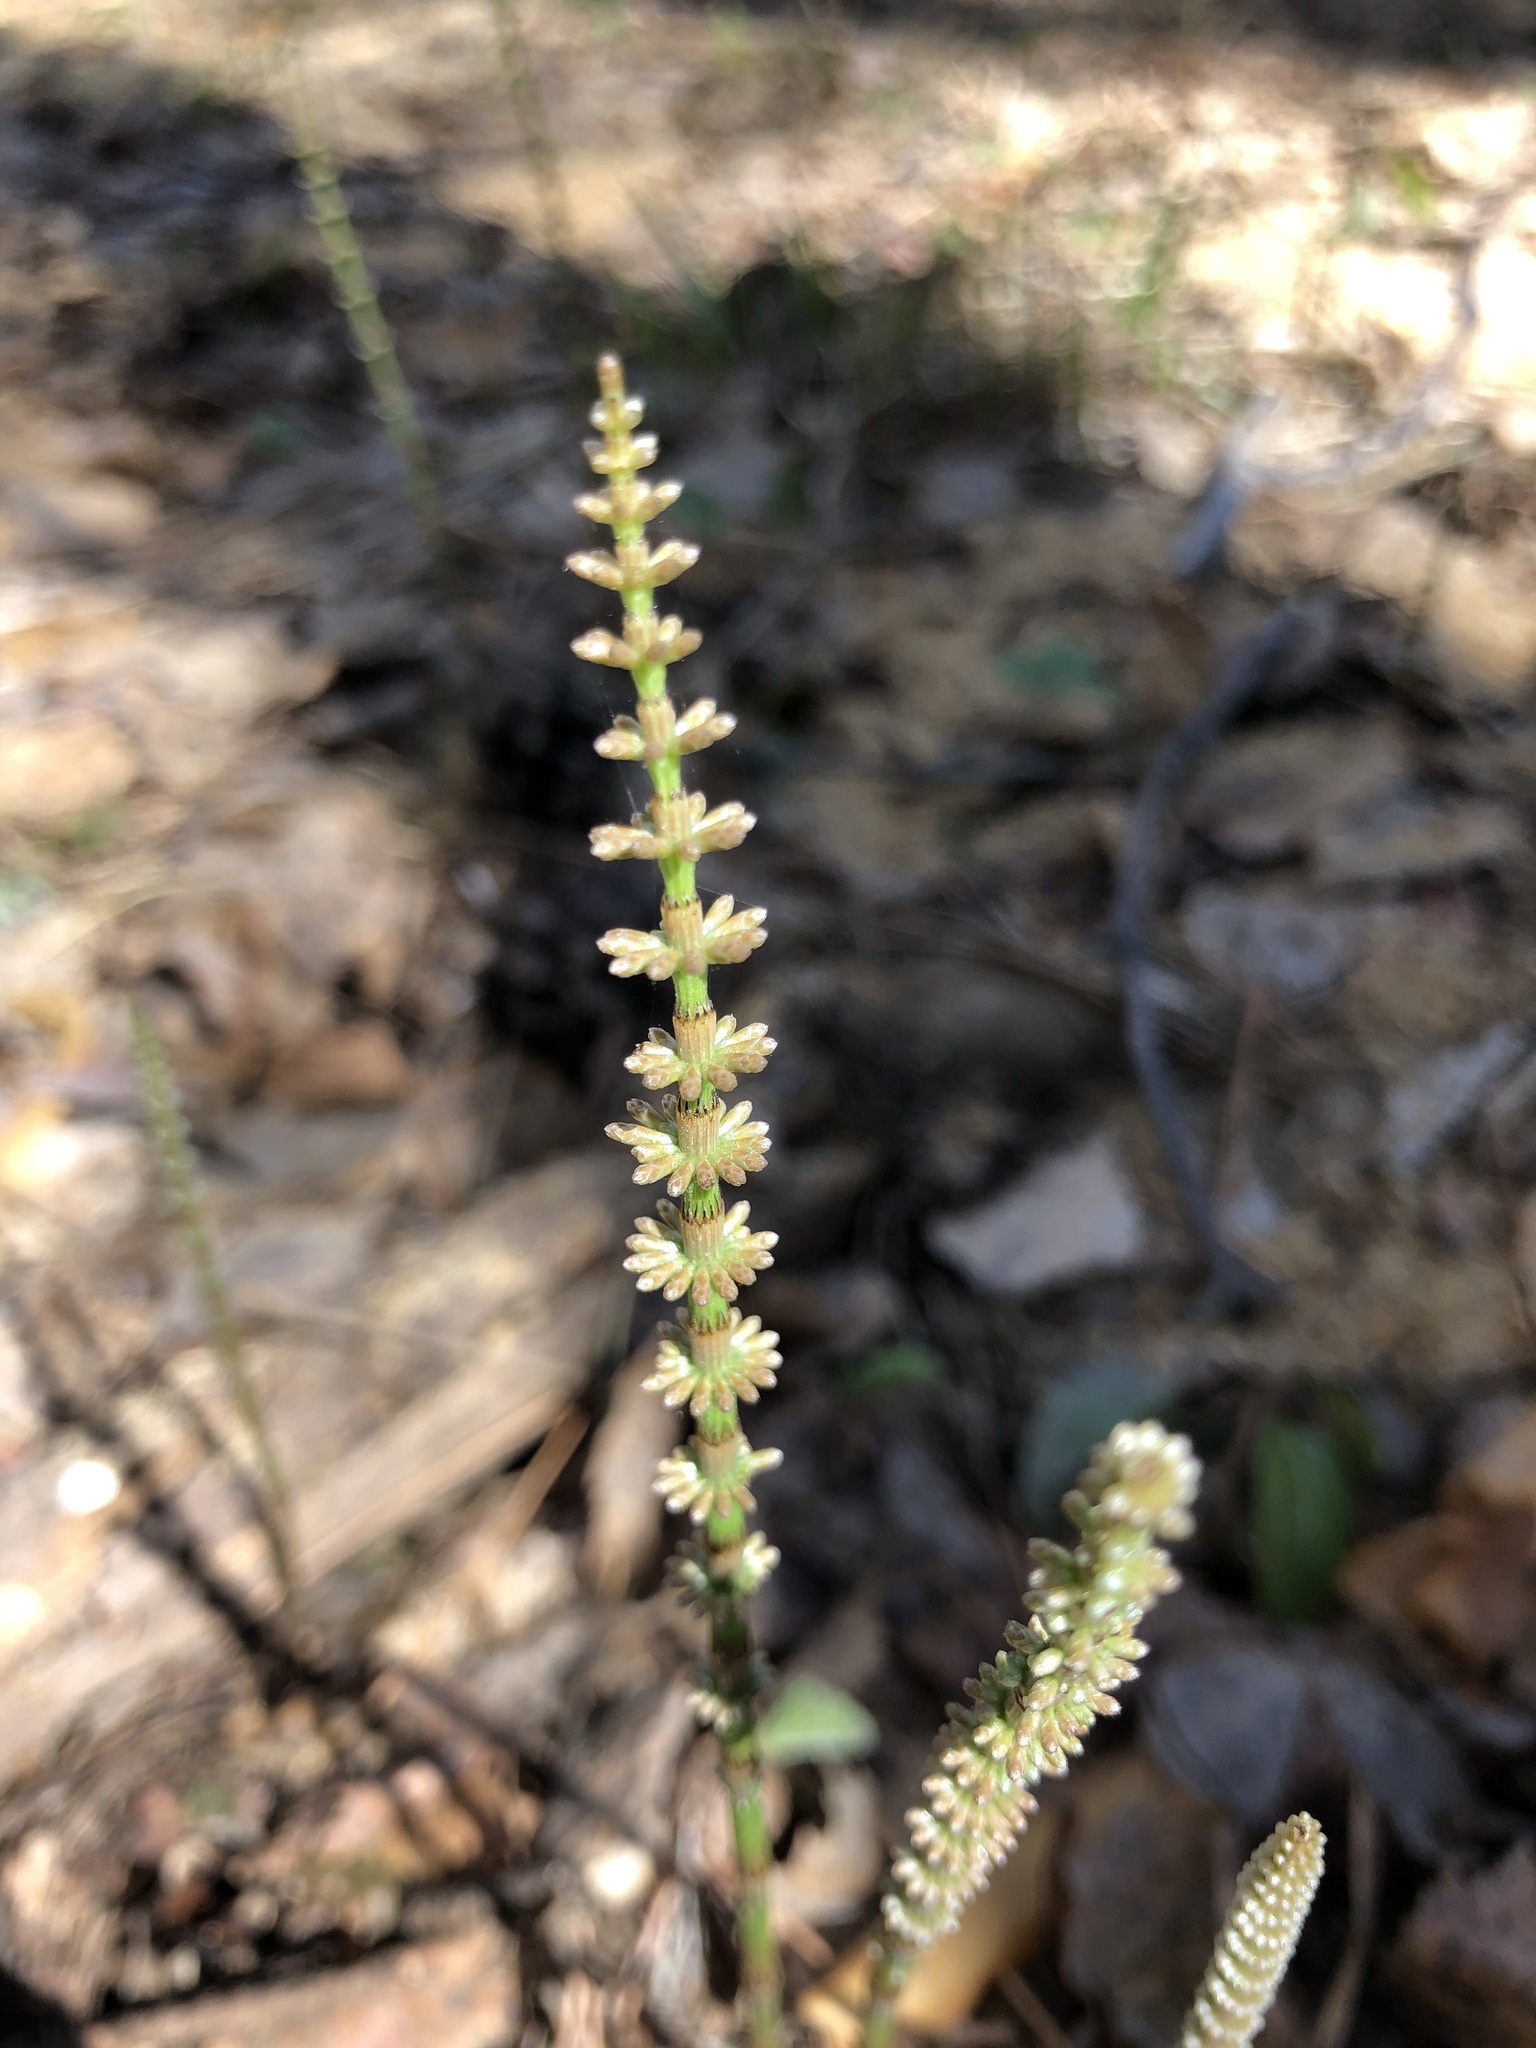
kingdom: Plantae
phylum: Tracheophyta
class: Polypodiopsida
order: Equisetales
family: Equisetaceae
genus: Equisetum
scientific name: Equisetum pratense
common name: Meadow horsetail
